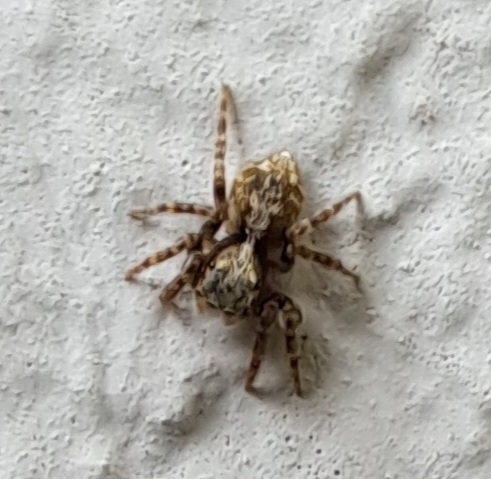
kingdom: Animalia
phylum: Arthropoda
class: Arachnida
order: Araneae
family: Salticidae
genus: Pseudeuophrys
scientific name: Pseudeuophrys lanigera
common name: Jumping spider
